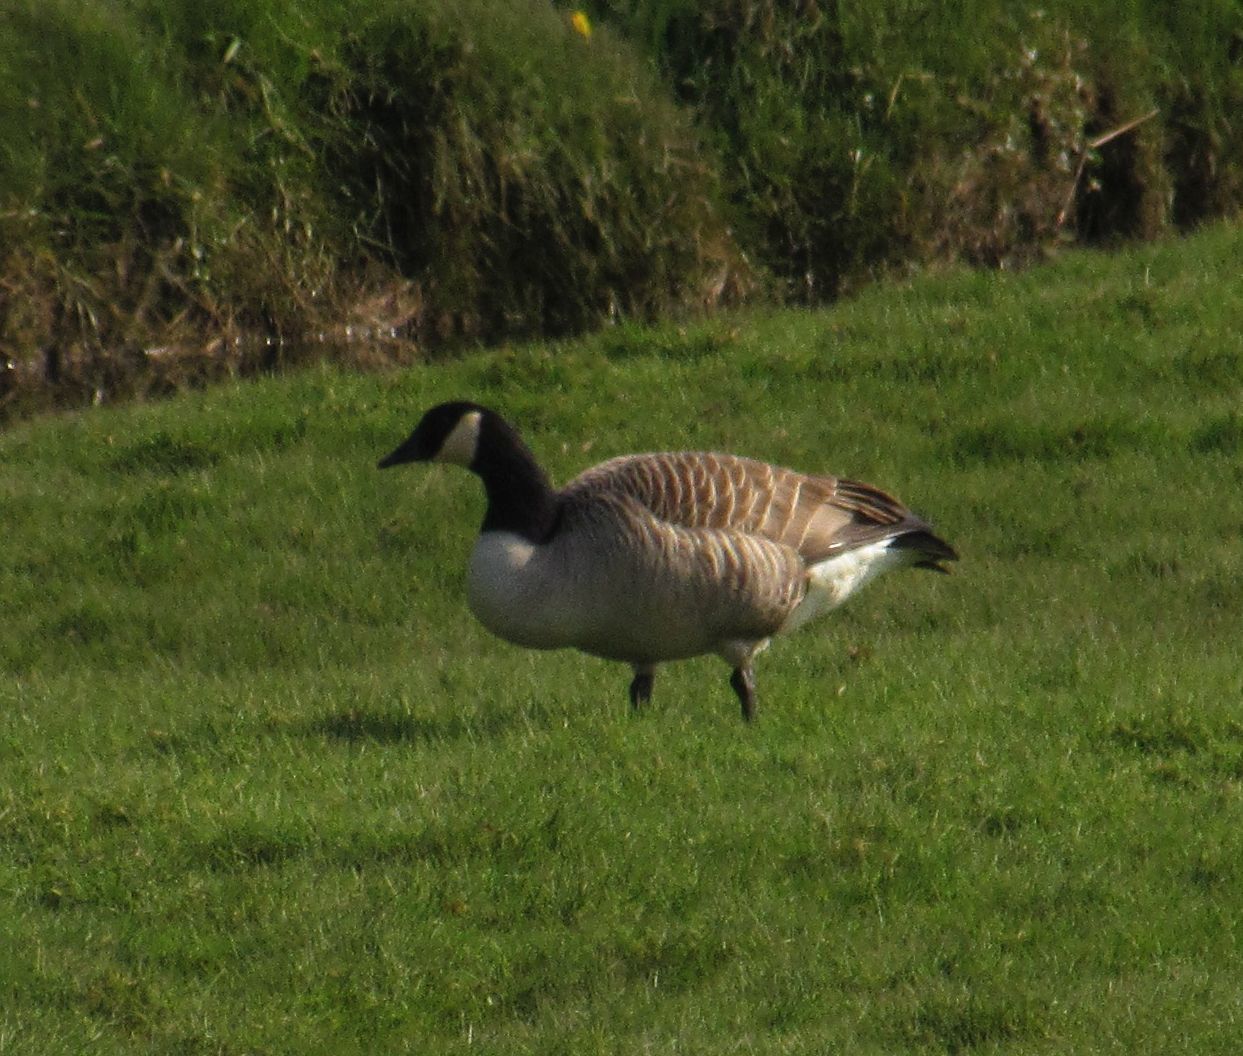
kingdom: Animalia
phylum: Chordata
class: Aves
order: Anseriformes
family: Anatidae
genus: Branta
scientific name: Branta canadensis
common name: Canada goose
